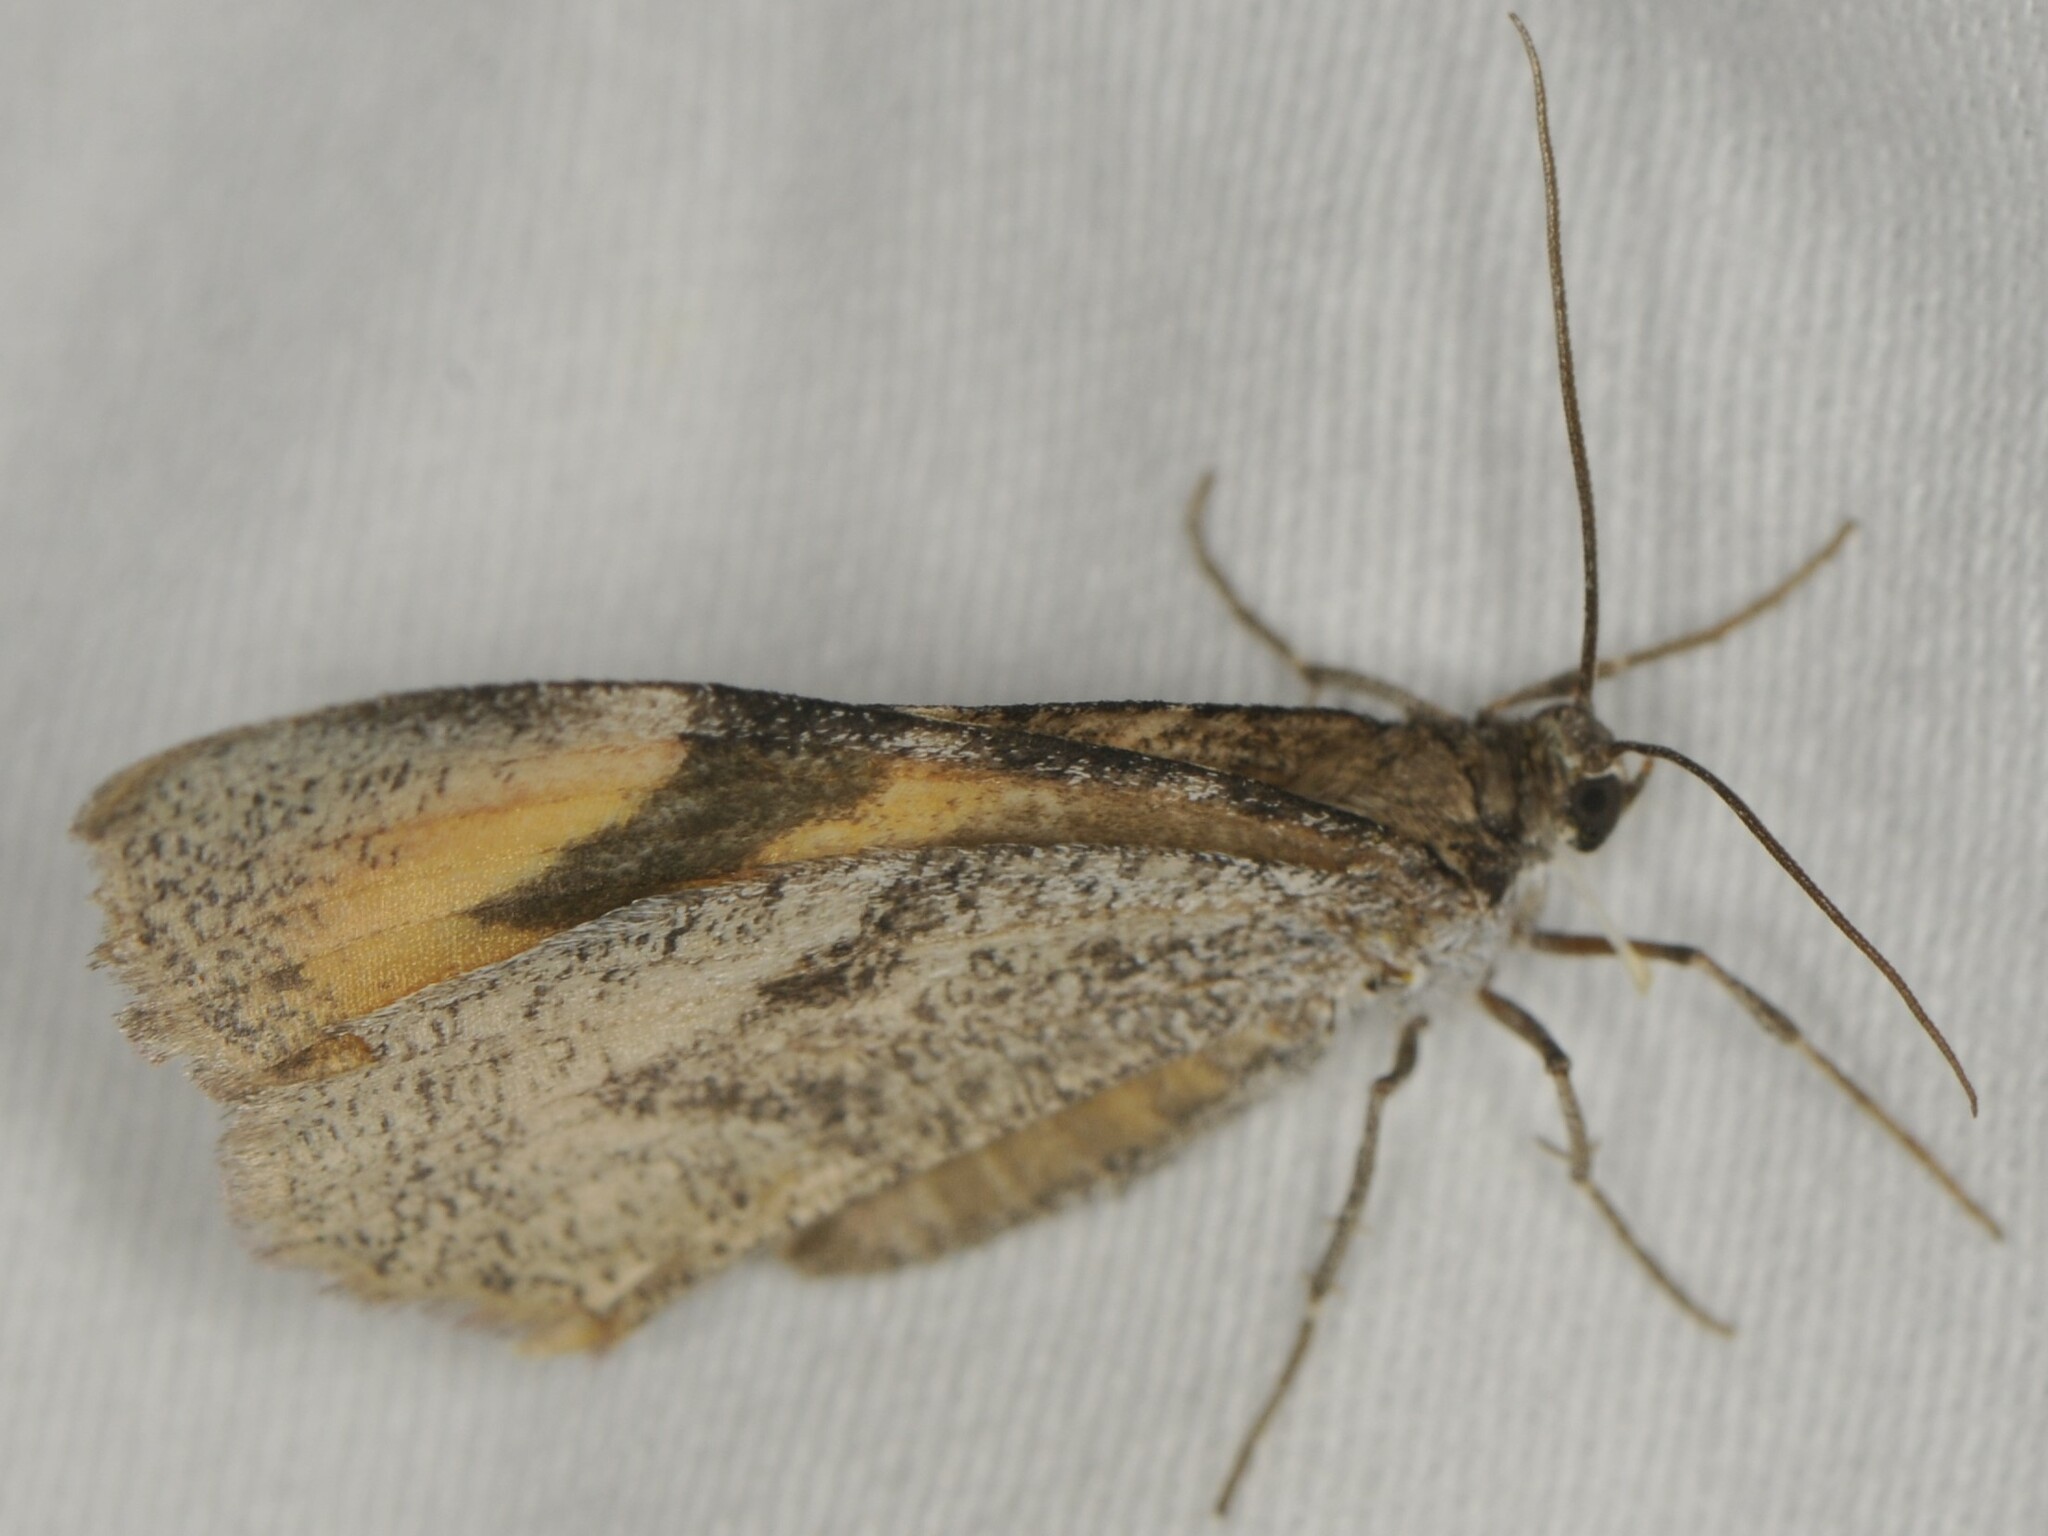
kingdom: Animalia
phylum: Arthropoda
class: Insecta
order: Lepidoptera
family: Geometridae
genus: Stamnodes
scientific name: Stamnodes seiferti
